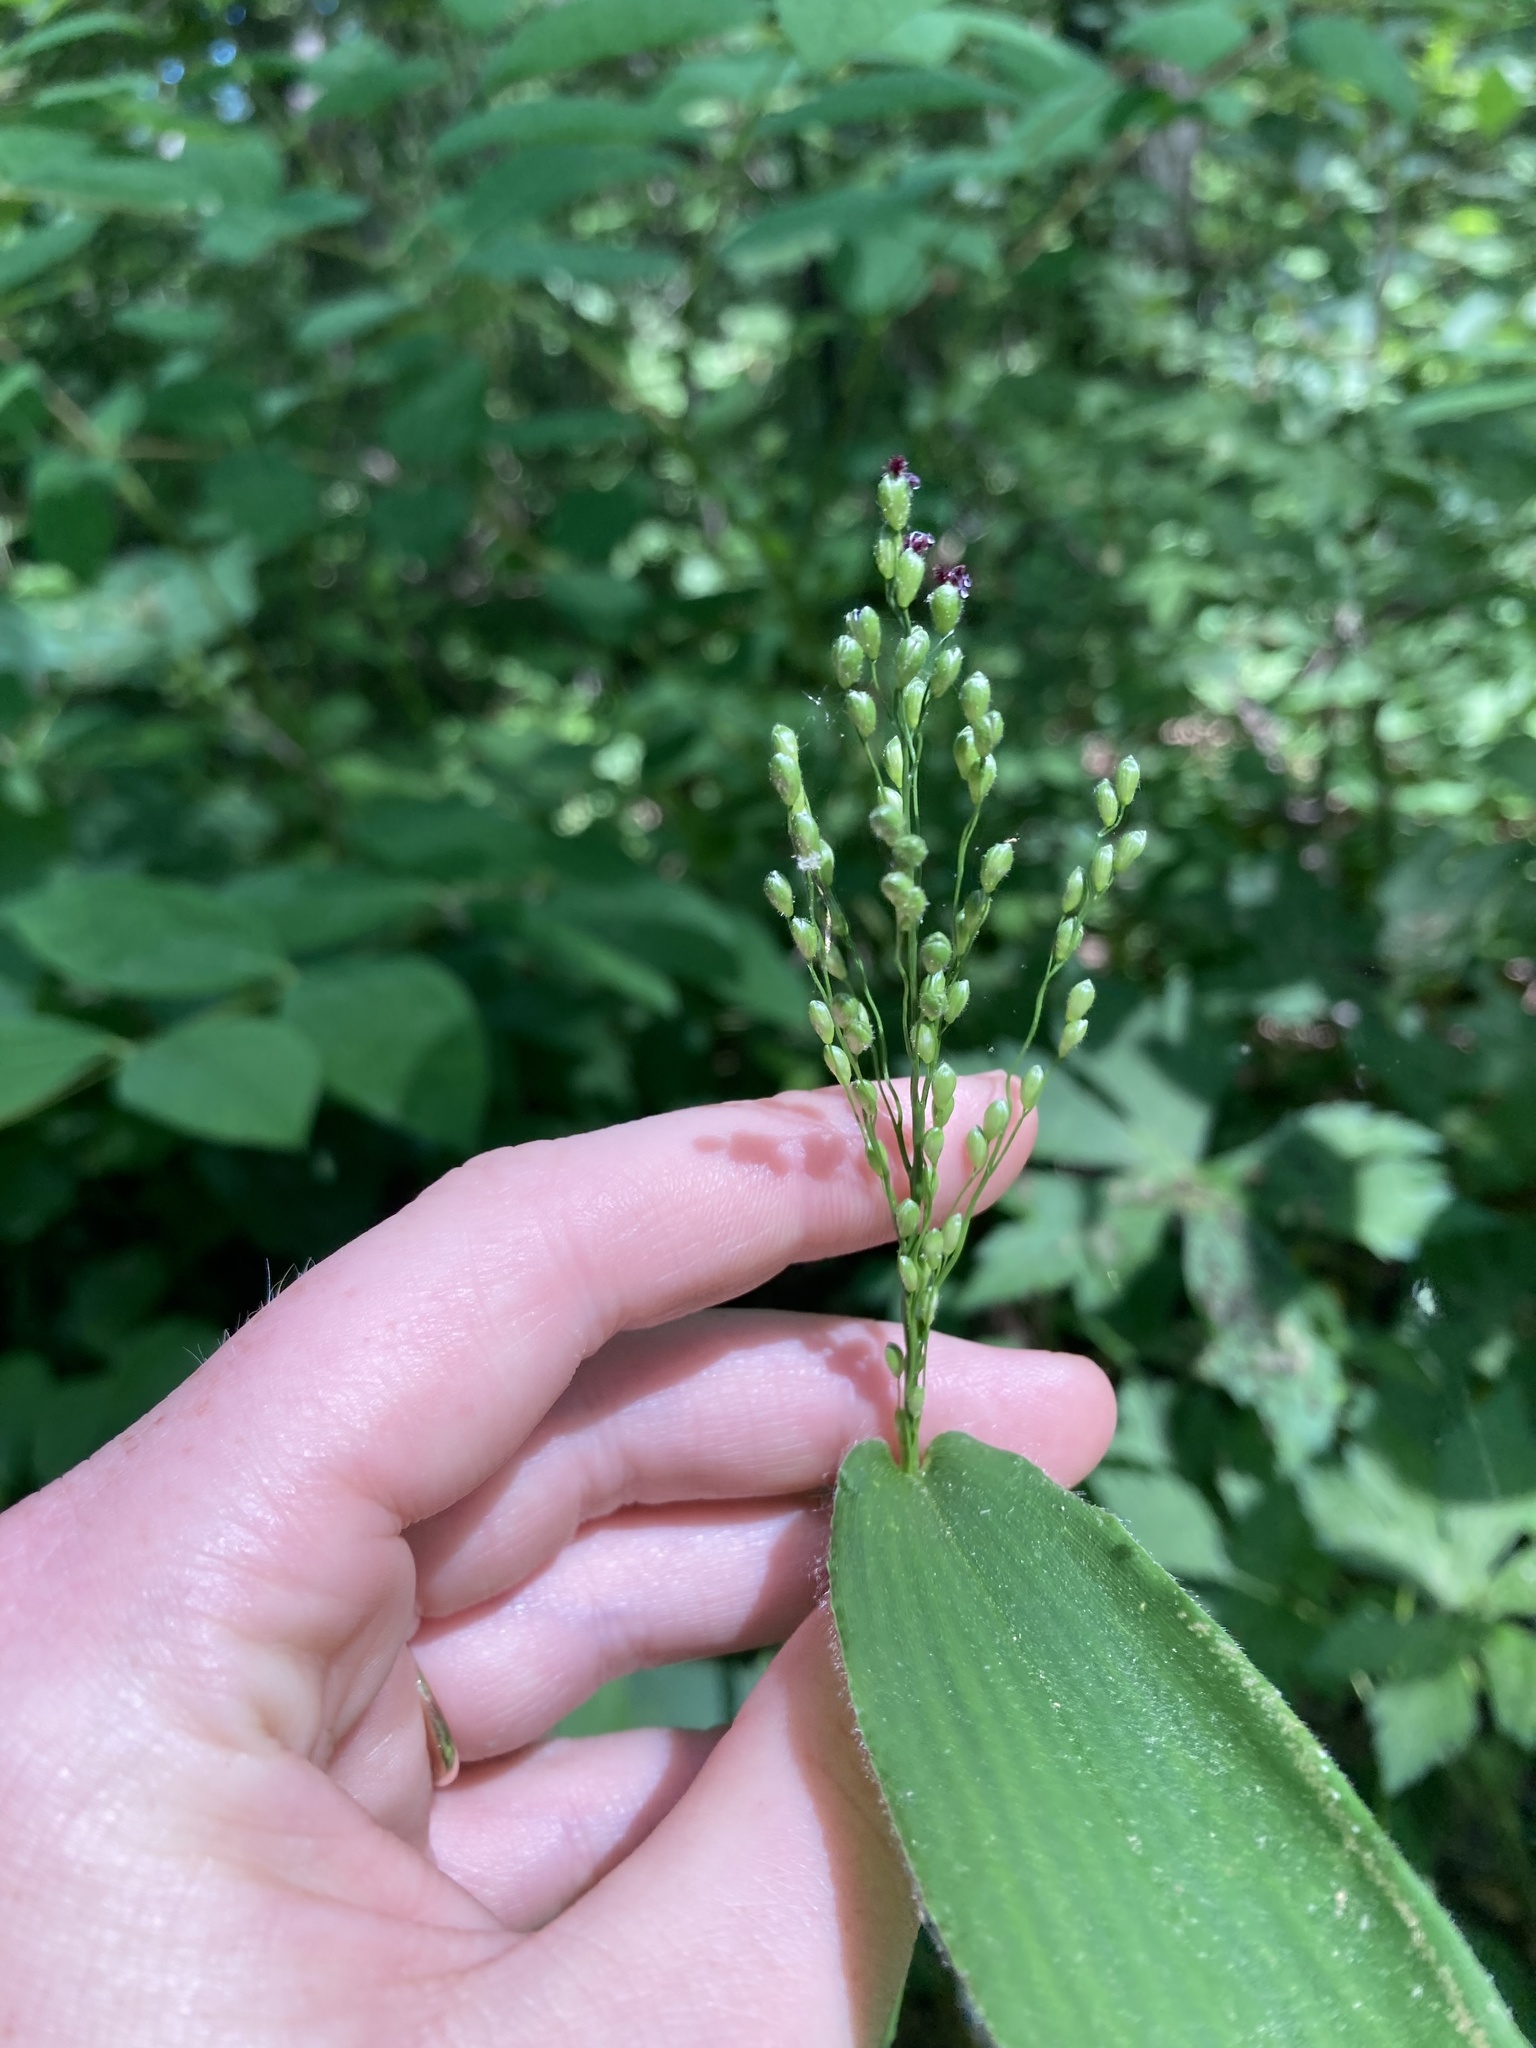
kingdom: Plantae
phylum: Tracheophyta
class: Liliopsida
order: Poales
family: Poaceae
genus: Dichanthelium
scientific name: Dichanthelium latifolium
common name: Broad-leaved panicgrass
